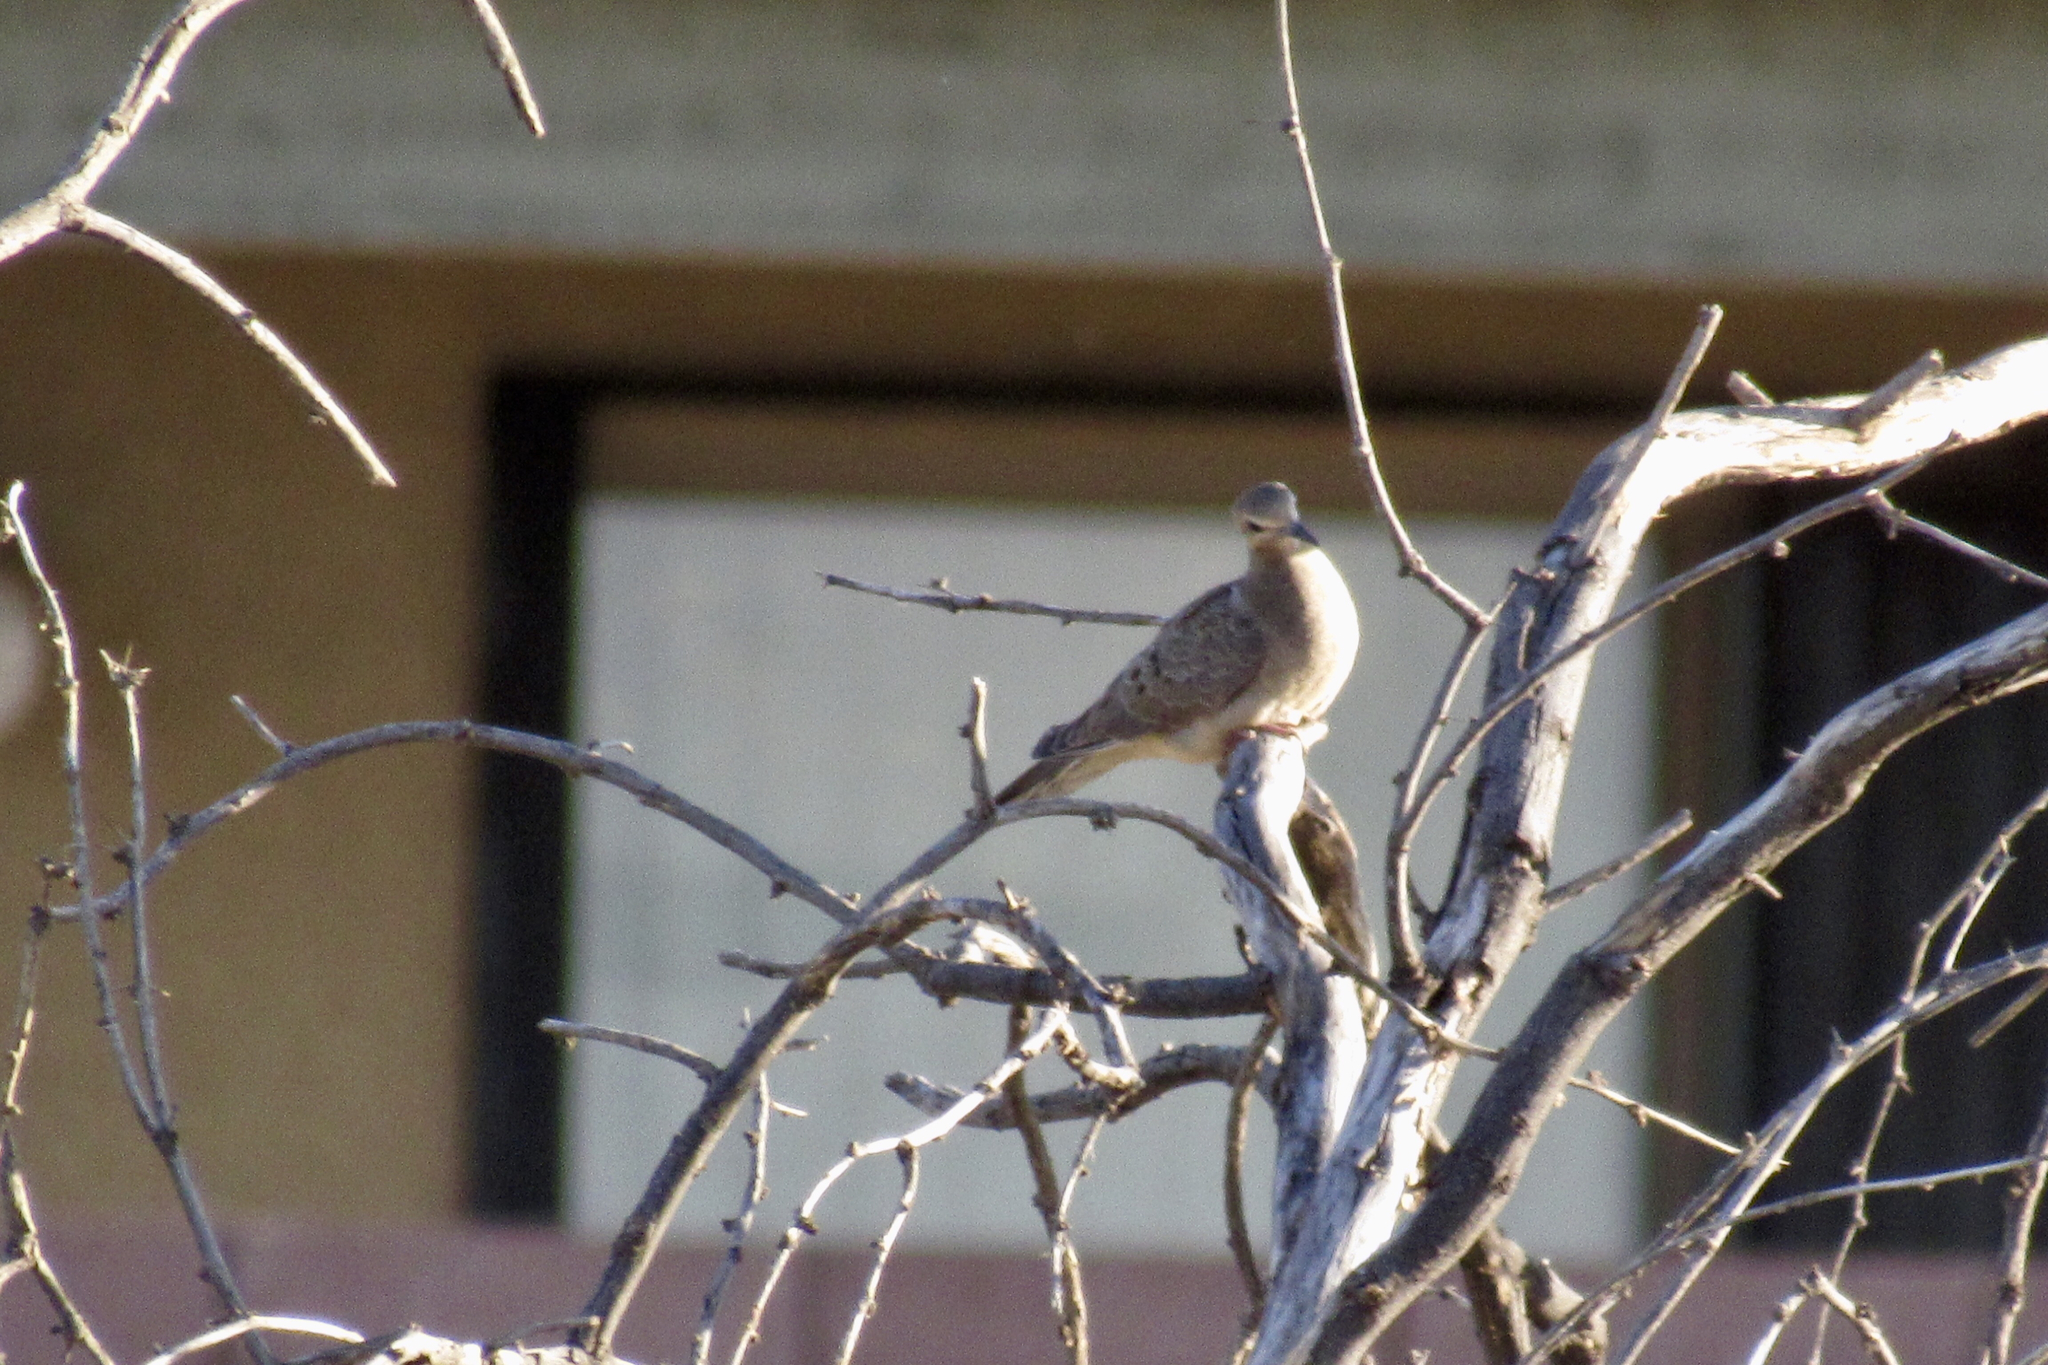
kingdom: Animalia
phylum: Chordata
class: Aves
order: Columbiformes
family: Columbidae
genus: Zenaida
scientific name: Zenaida macroura
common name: Mourning dove
